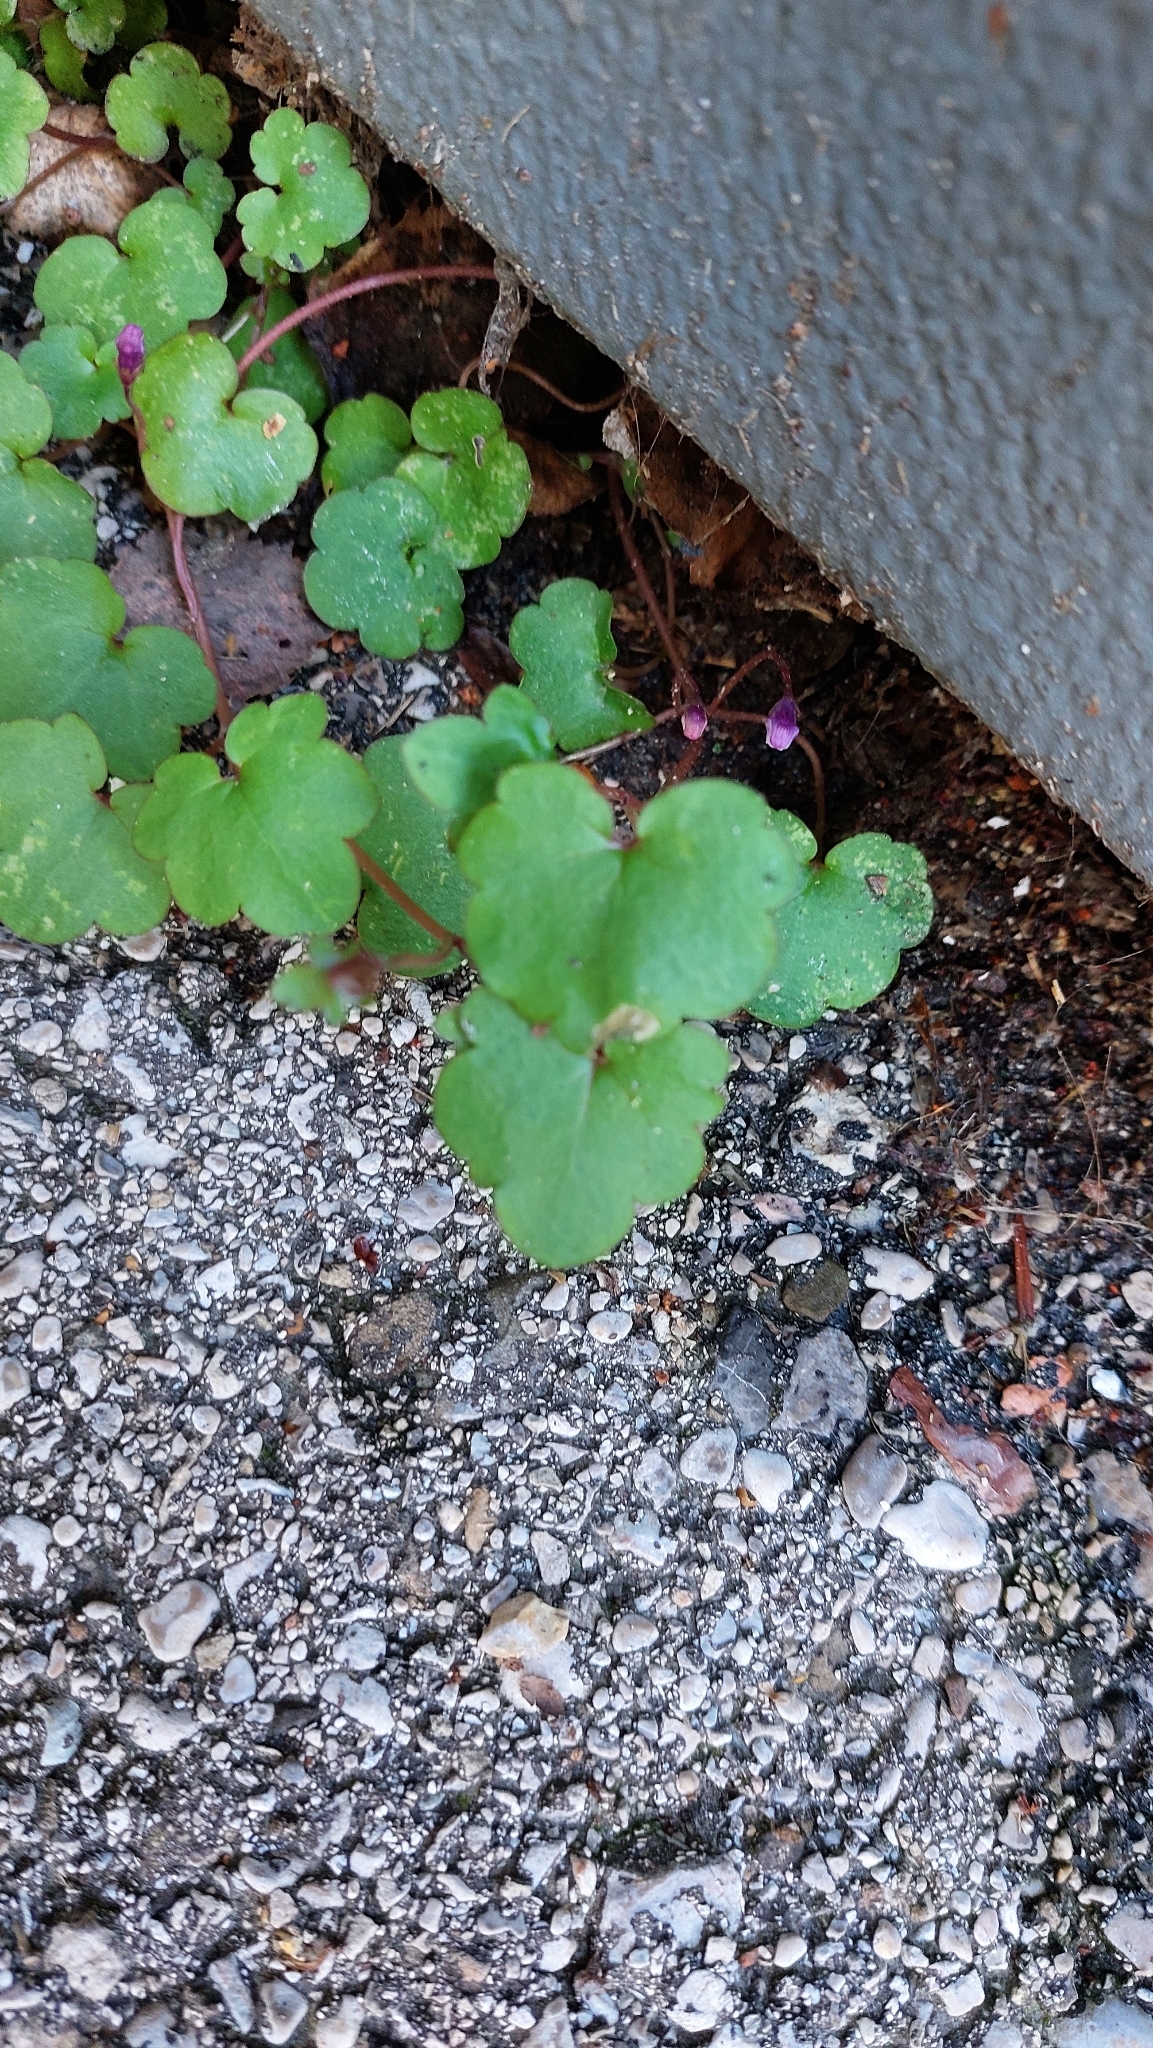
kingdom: Plantae
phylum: Tracheophyta
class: Magnoliopsida
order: Lamiales
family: Plantaginaceae
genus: Cymbalaria
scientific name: Cymbalaria muralis
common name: Ivy-leaved toadflax
